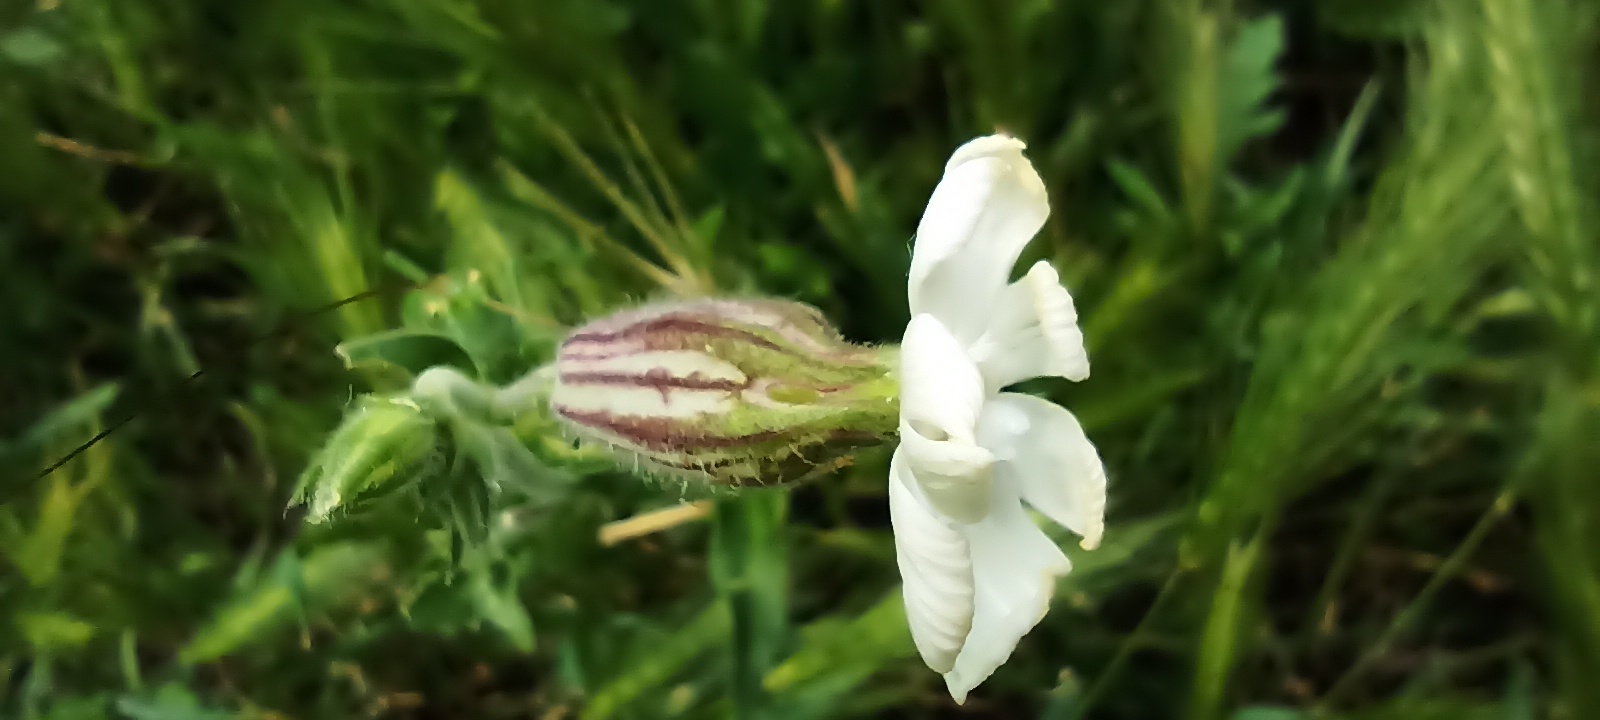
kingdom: Plantae
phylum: Tracheophyta
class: Magnoliopsida
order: Caryophyllales
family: Caryophyllaceae
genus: Silene
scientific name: Silene latifolia
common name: White campion
